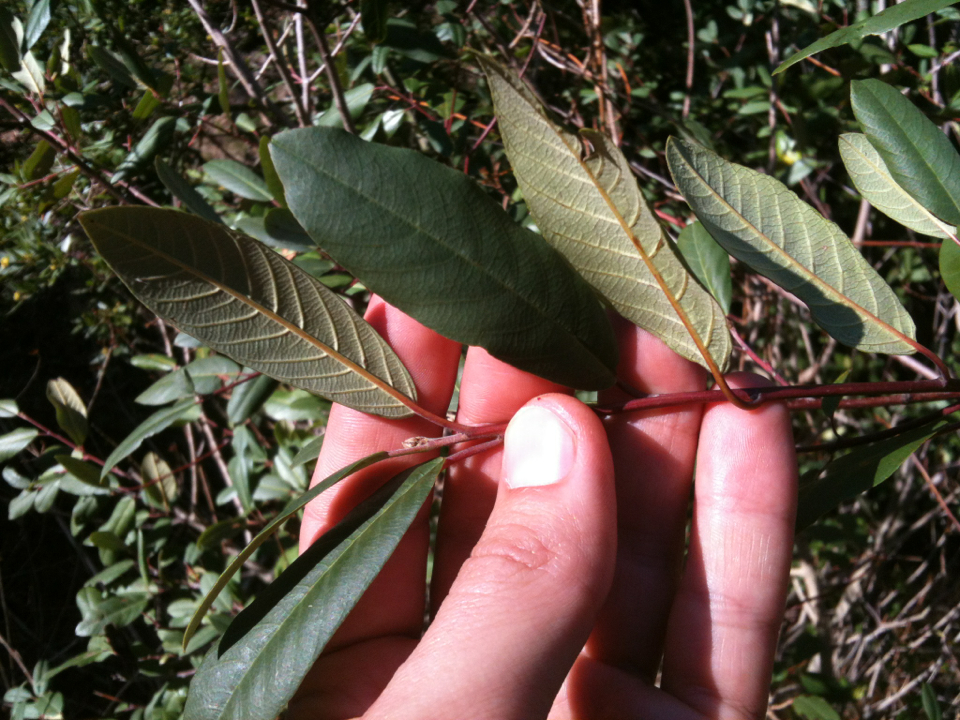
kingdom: Plantae
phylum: Tracheophyta
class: Magnoliopsida
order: Rosales
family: Rhamnaceae
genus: Frangula
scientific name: Frangula californica
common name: California buckthorn
